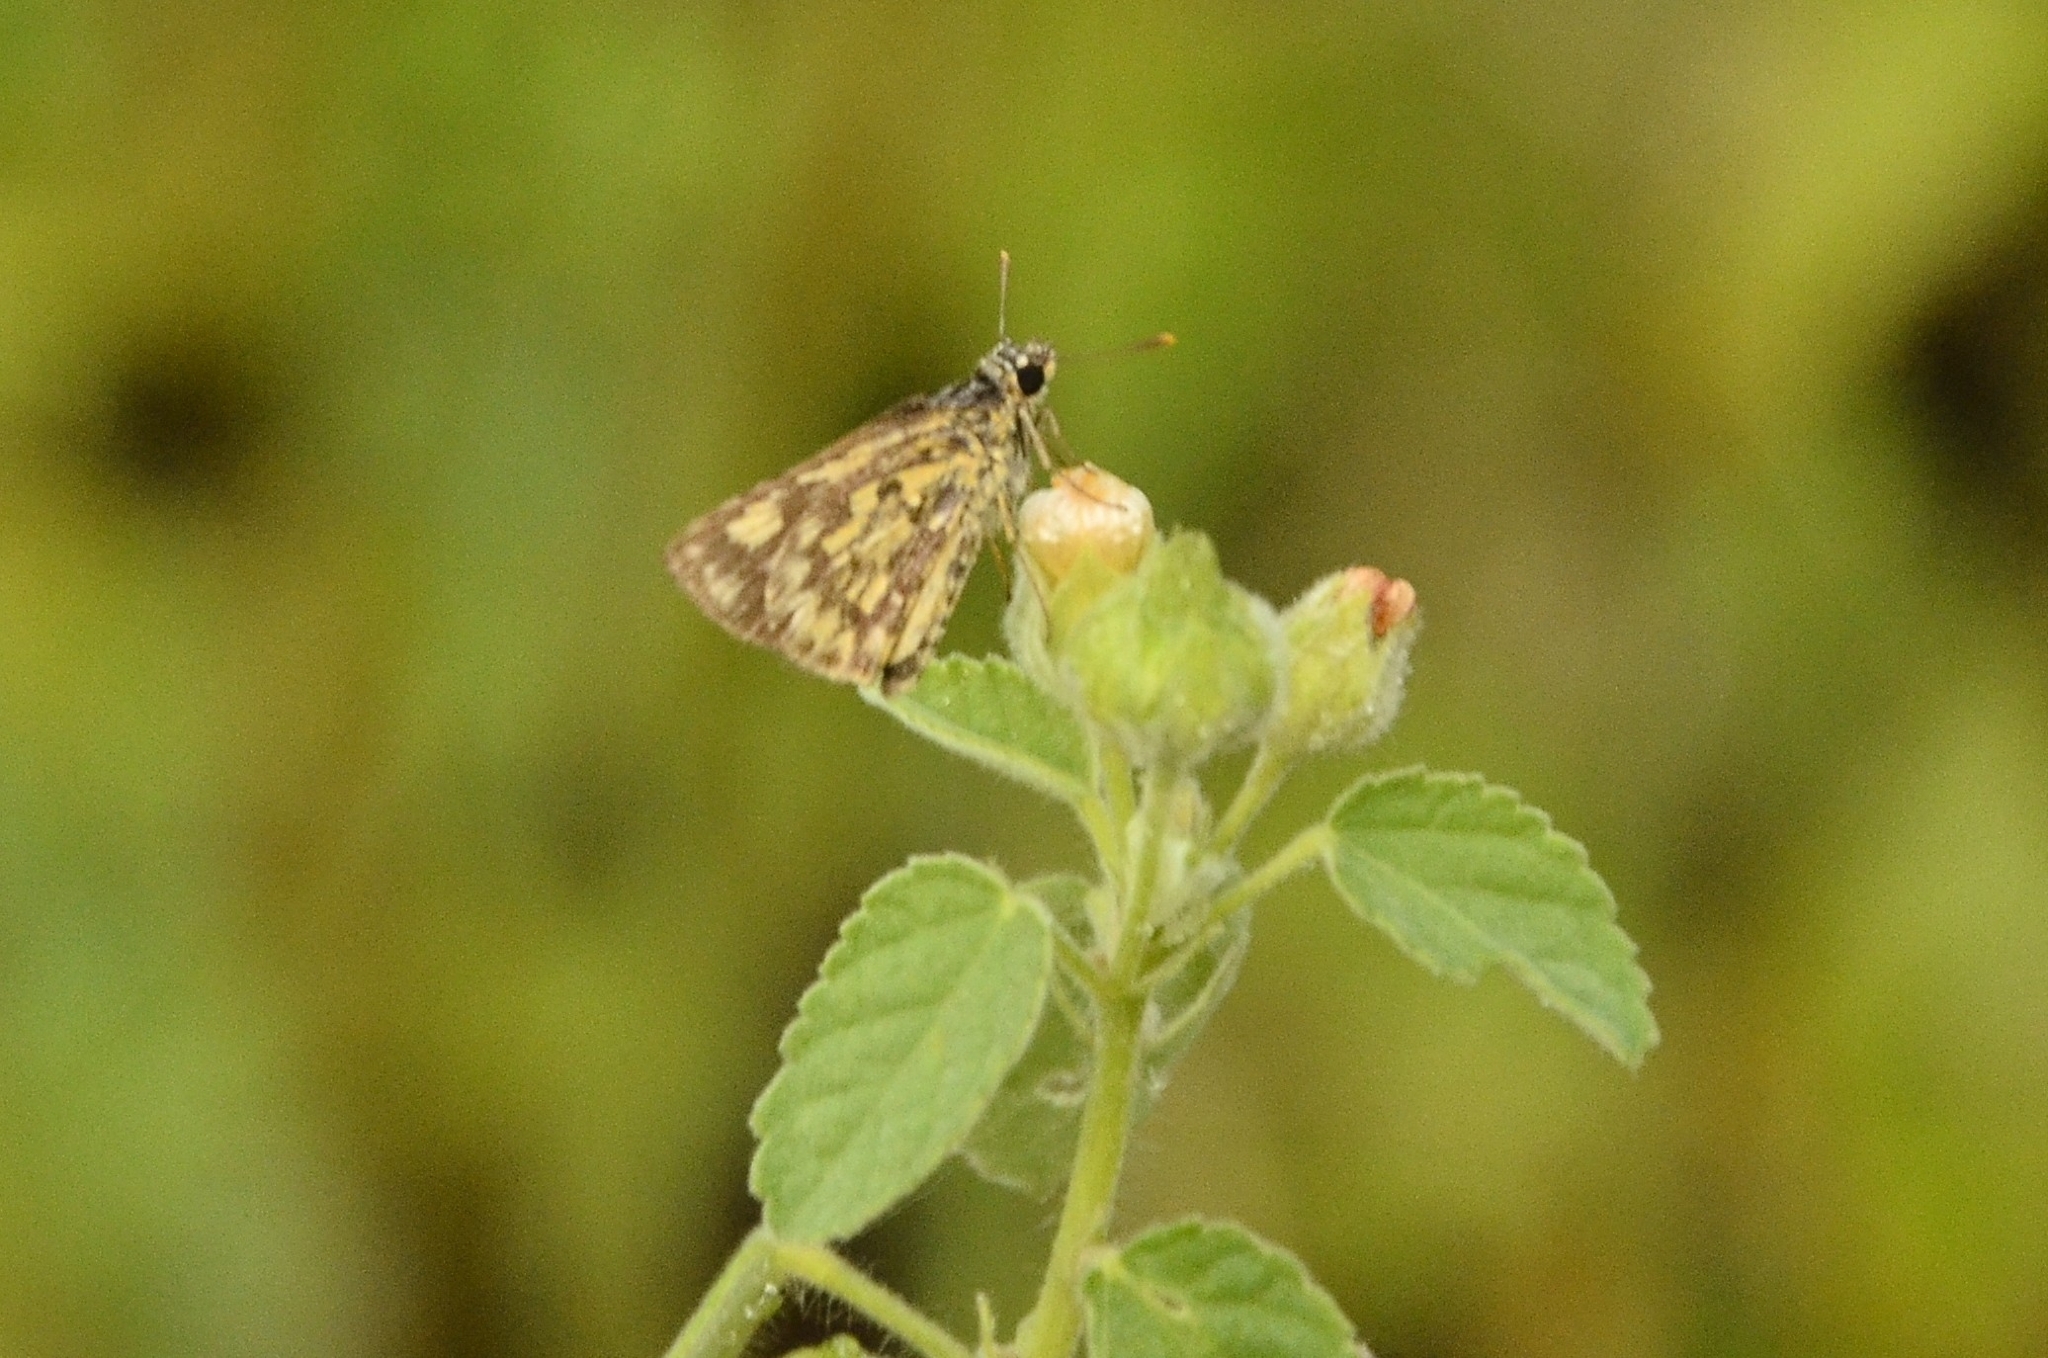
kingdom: Animalia
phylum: Arthropoda
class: Insecta
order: Lepidoptera
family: Hesperiidae
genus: Ampittia
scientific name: Ampittia dioscorides
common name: Common bush hopper
